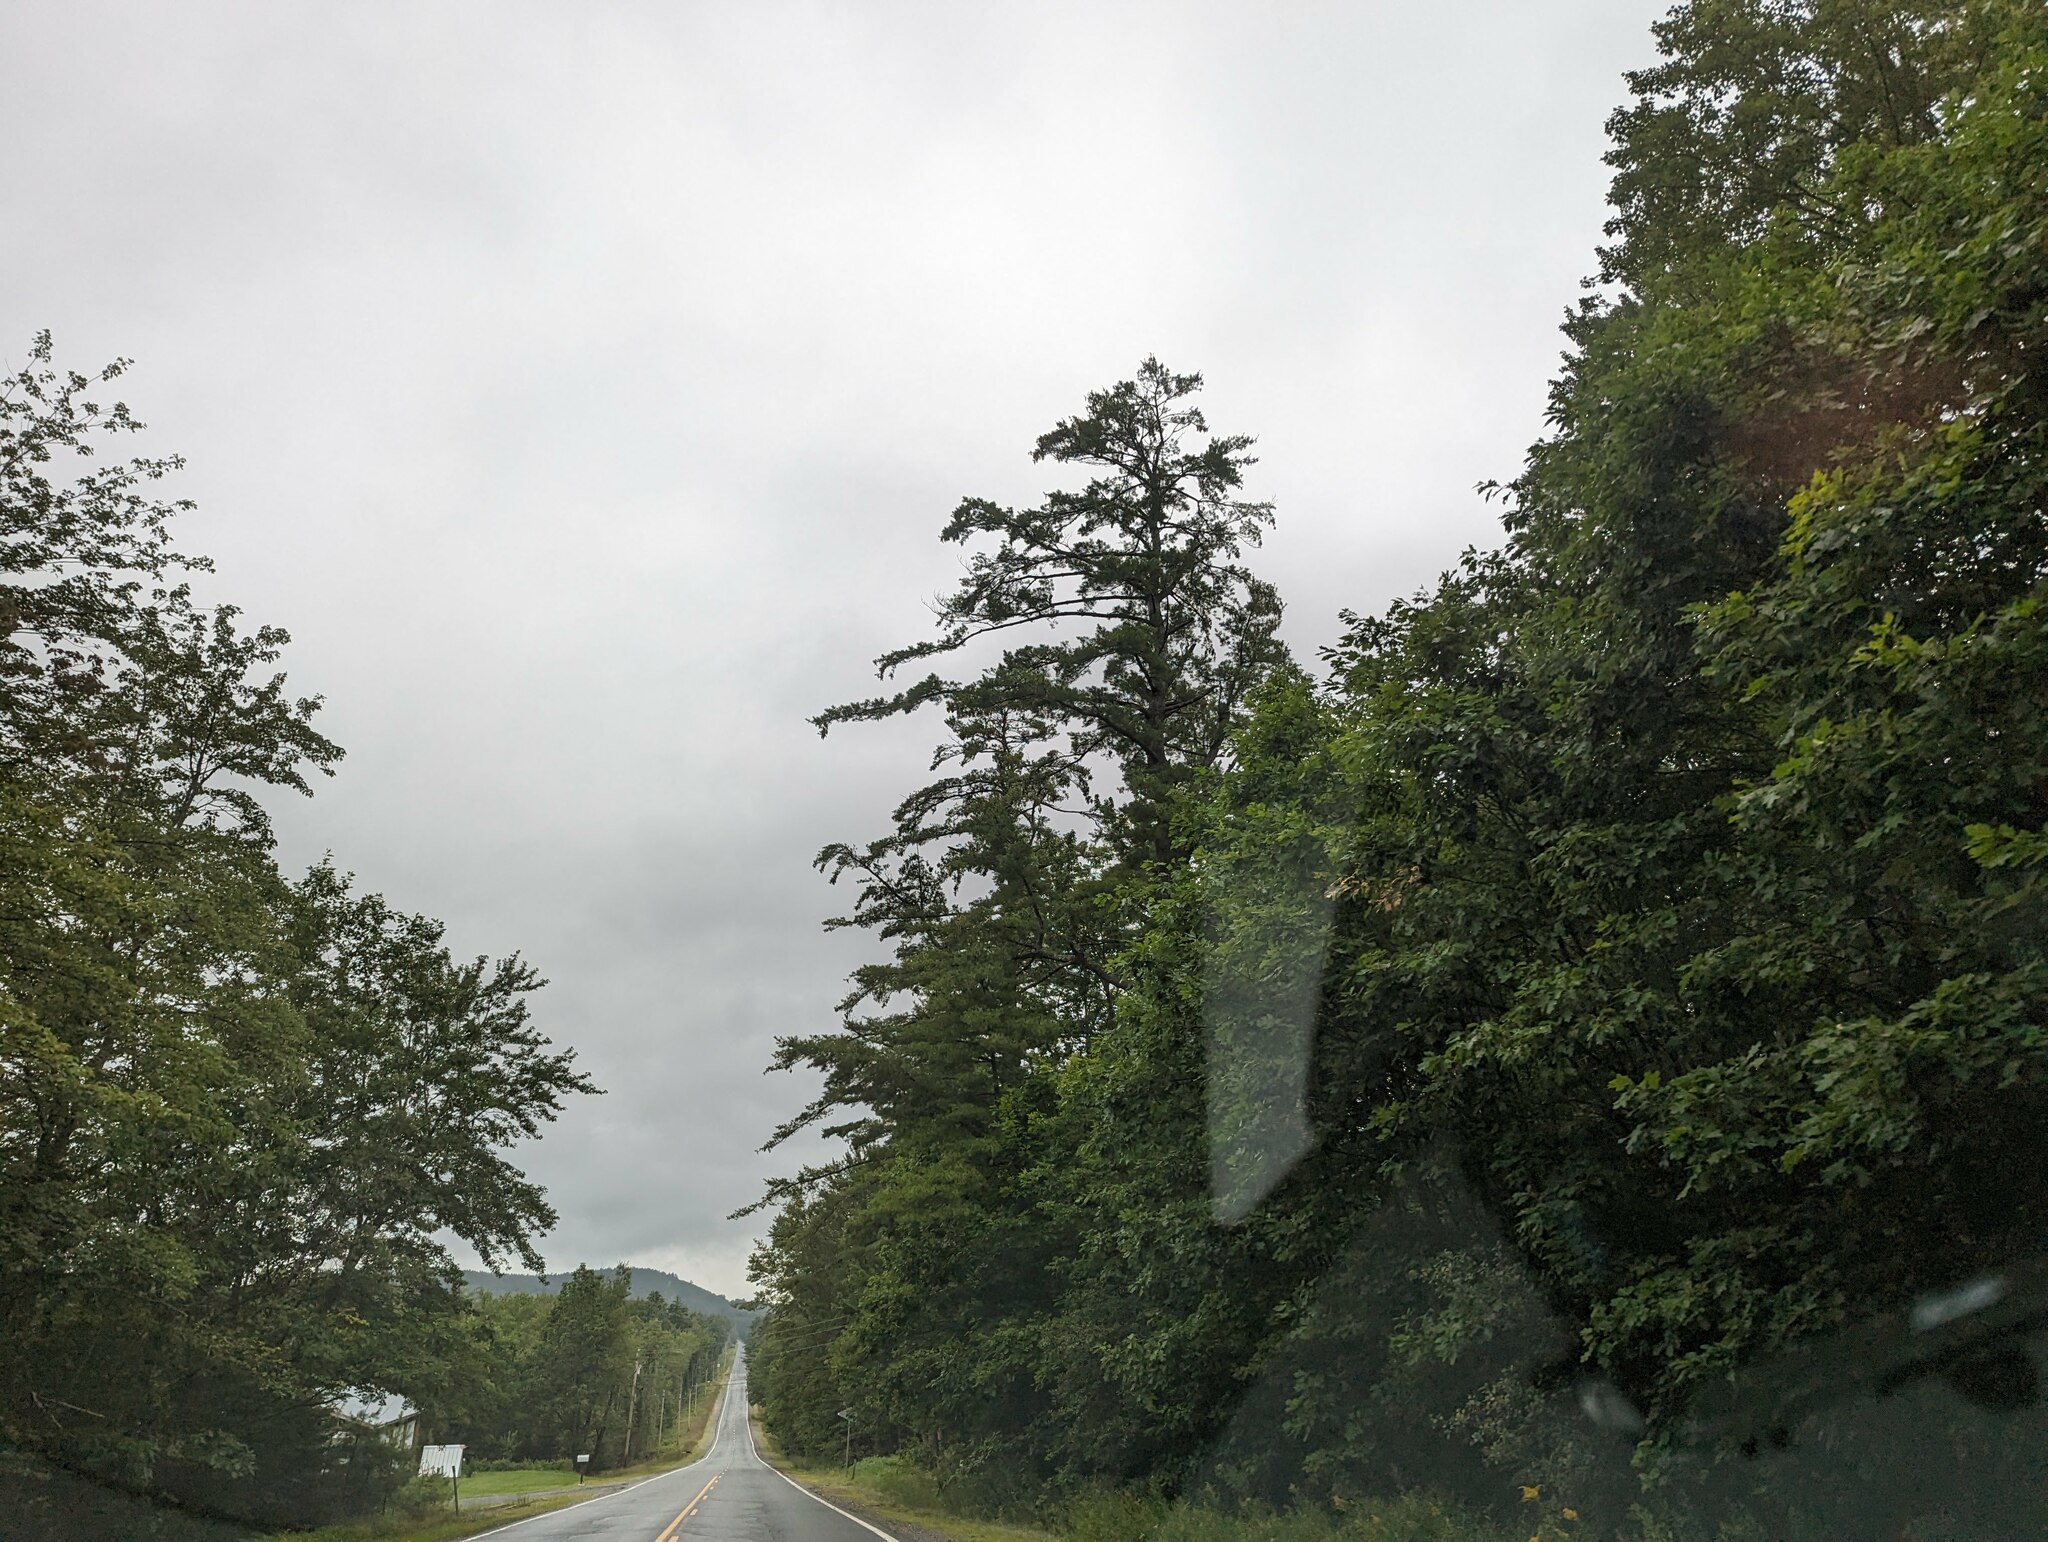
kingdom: Plantae
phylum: Tracheophyta
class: Pinopsida
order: Pinales
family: Pinaceae
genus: Pinus
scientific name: Pinus strobus
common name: Weymouth pine
